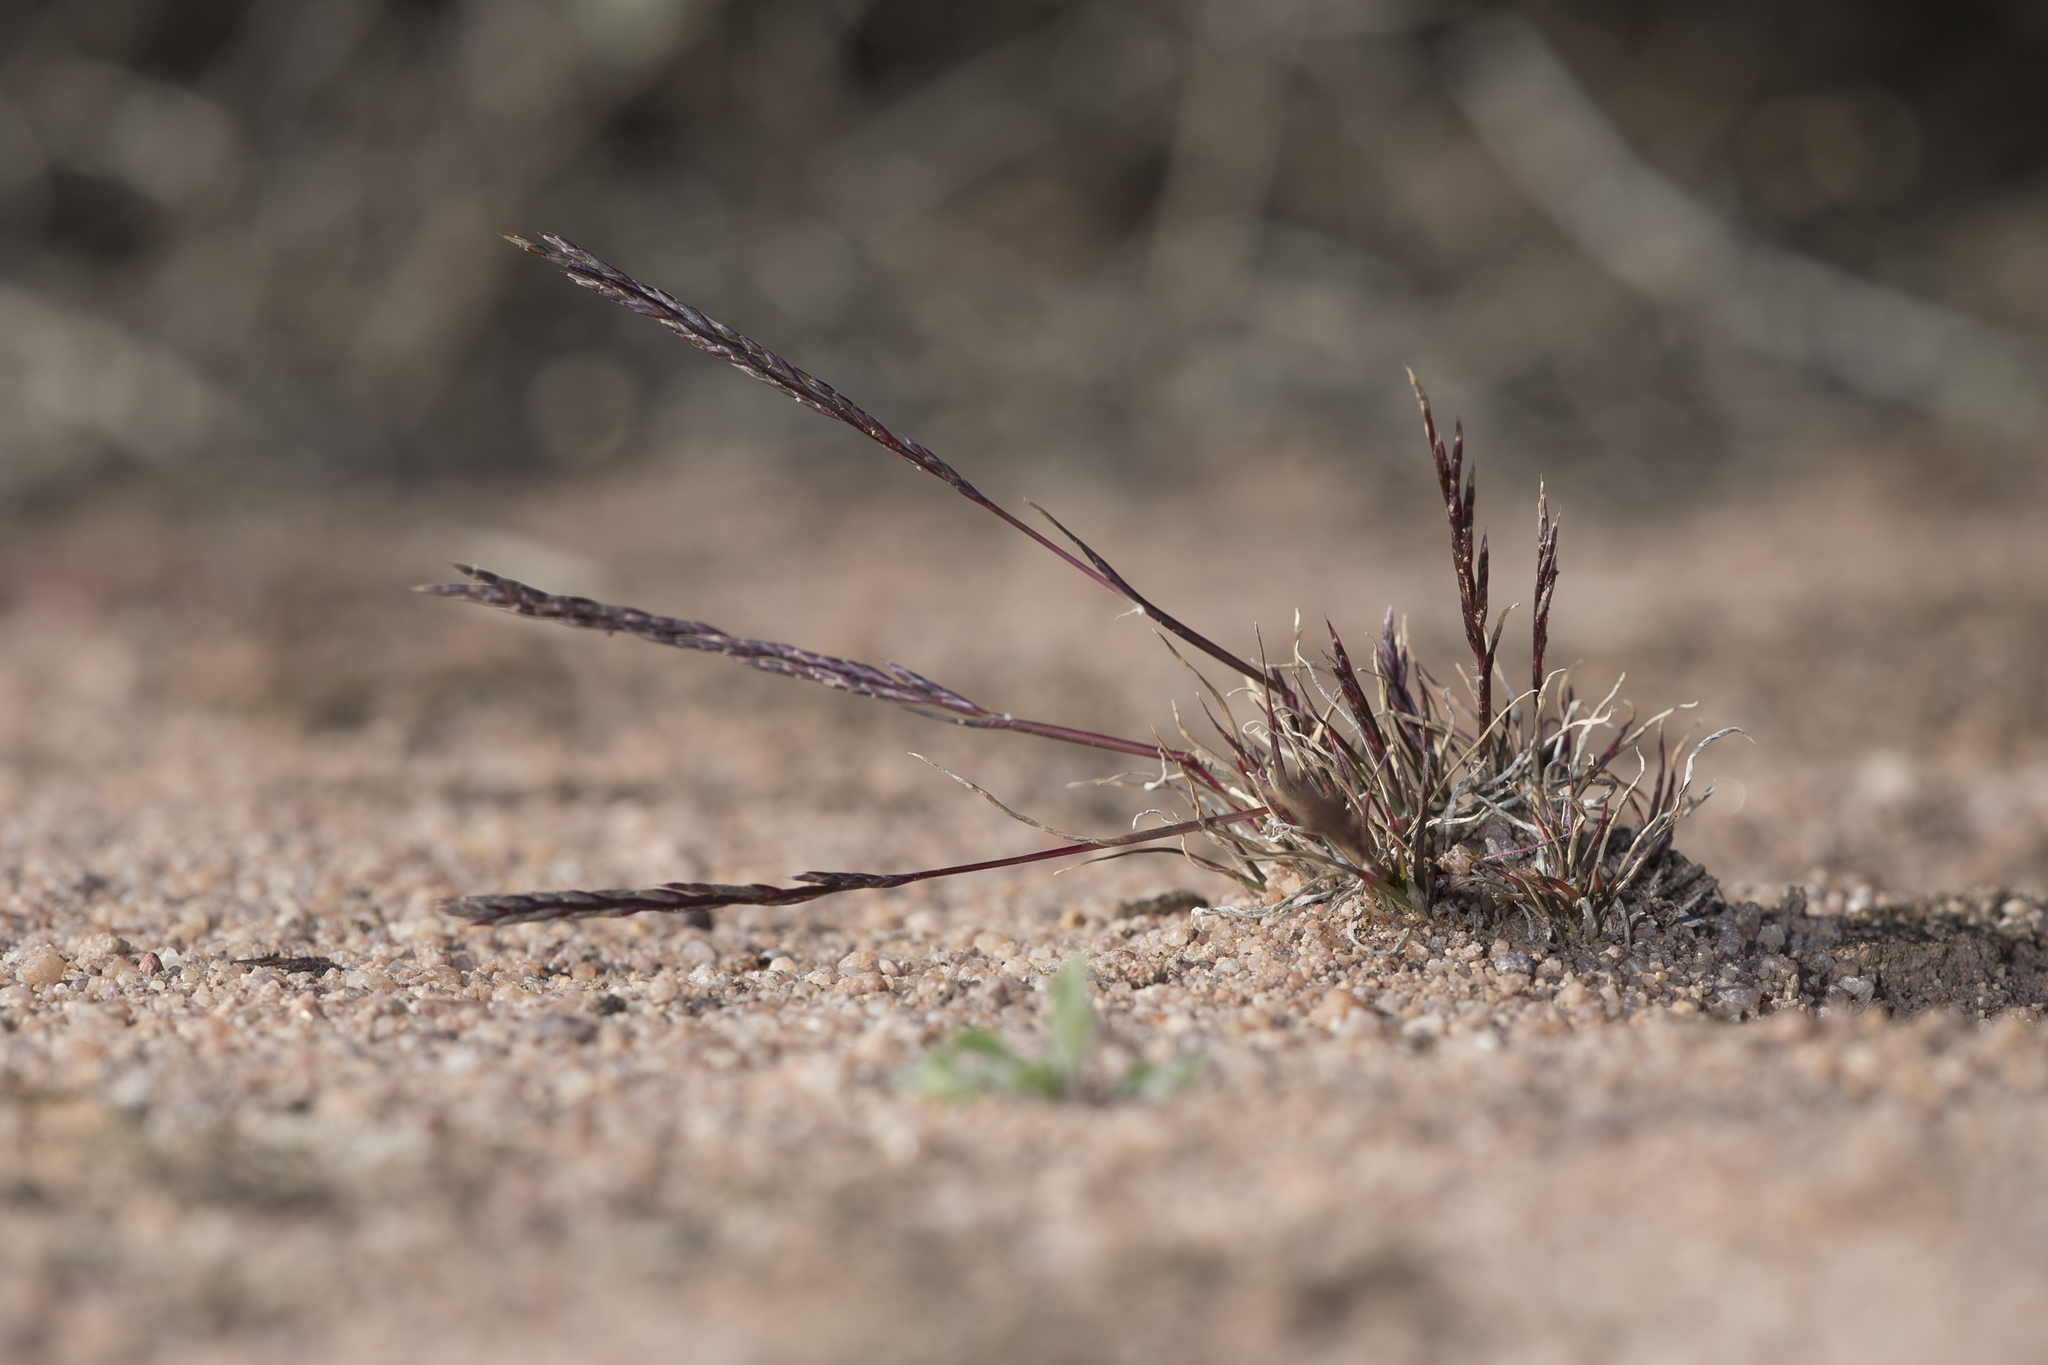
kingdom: Plantae
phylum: Tracheophyta
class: Liliopsida
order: Poales
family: Poaceae
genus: Tripogonella
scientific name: Tripogonella loliiformis
